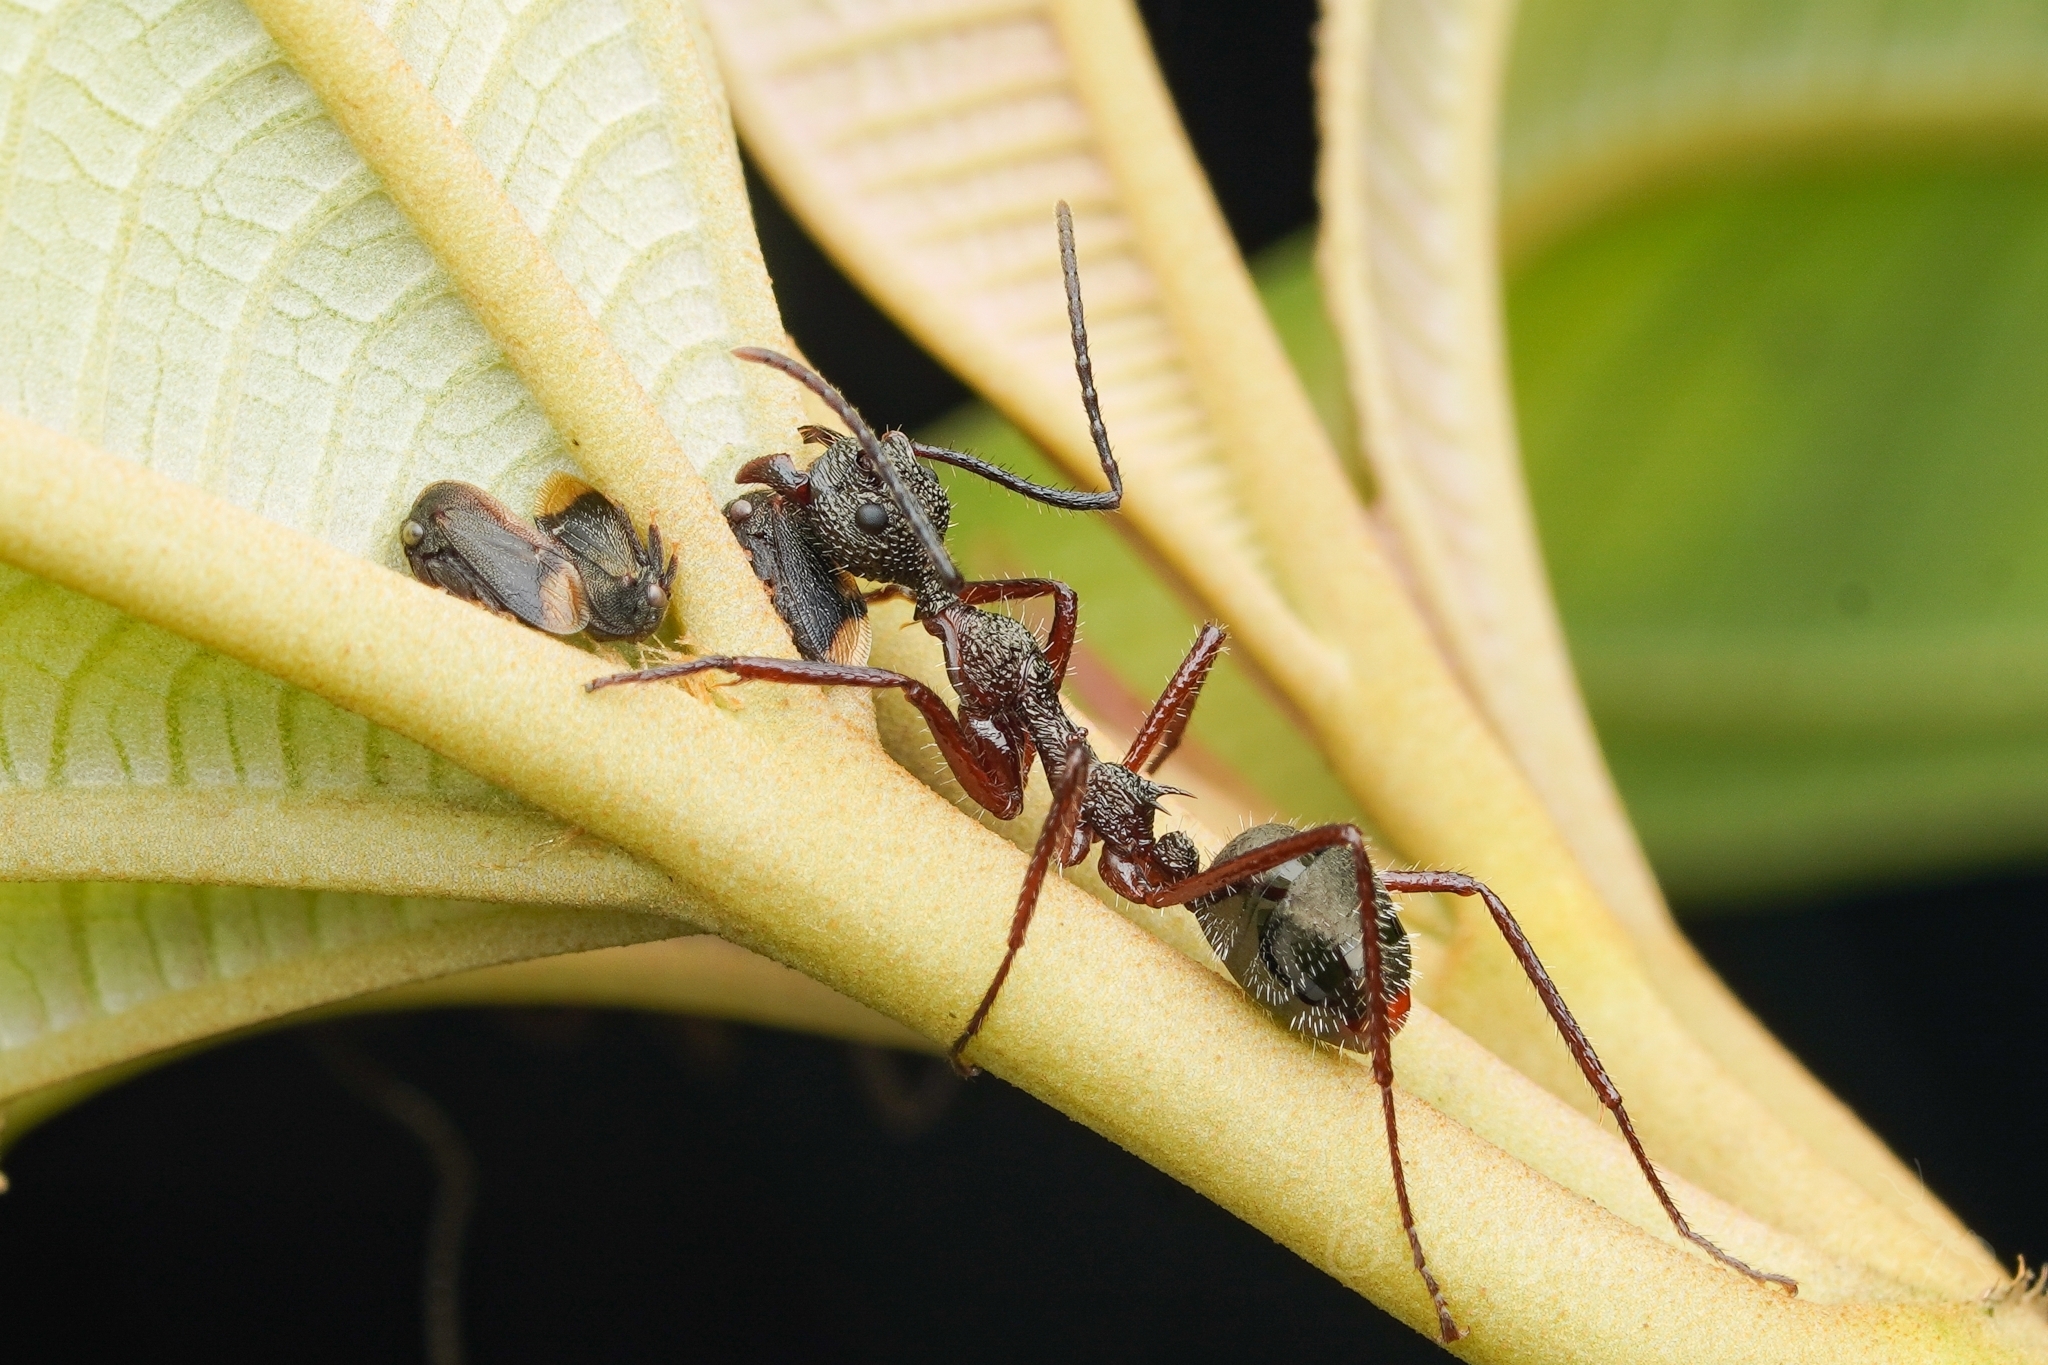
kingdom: Animalia
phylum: Arthropoda
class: Insecta
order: Hymenoptera
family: Formicidae
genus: Dolichoderus
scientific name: Dolichoderus attelaboides
